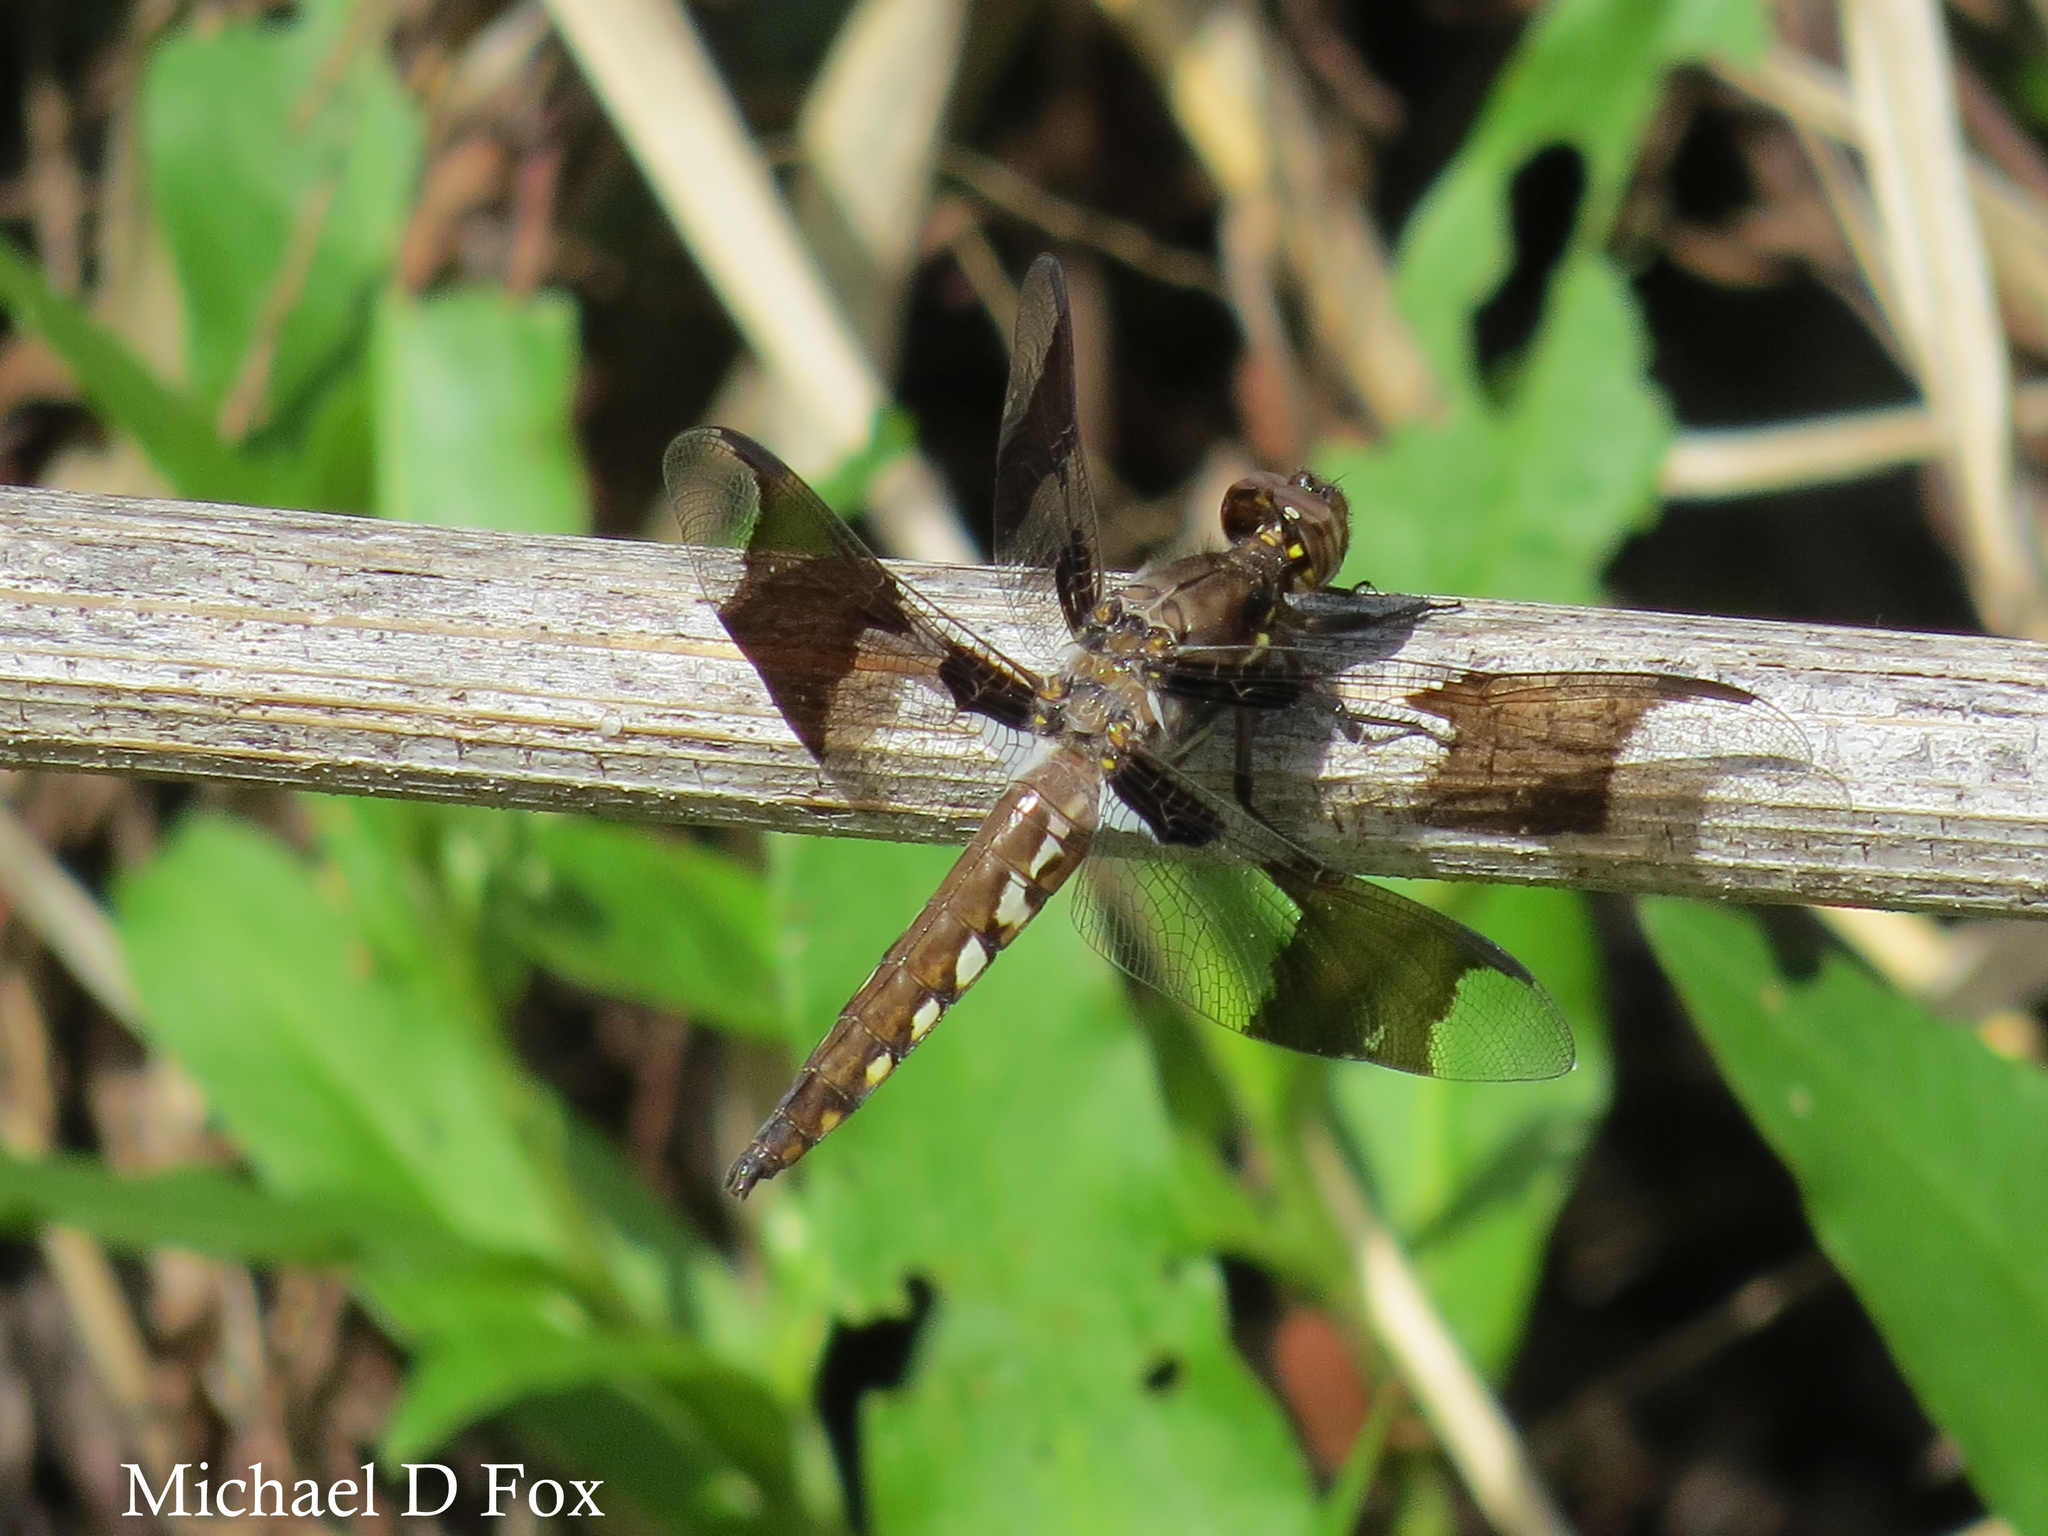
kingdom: Animalia
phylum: Arthropoda
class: Insecta
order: Odonata
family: Libellulidae
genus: Plathemis
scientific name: Plathemis lydia
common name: Common whitetail
